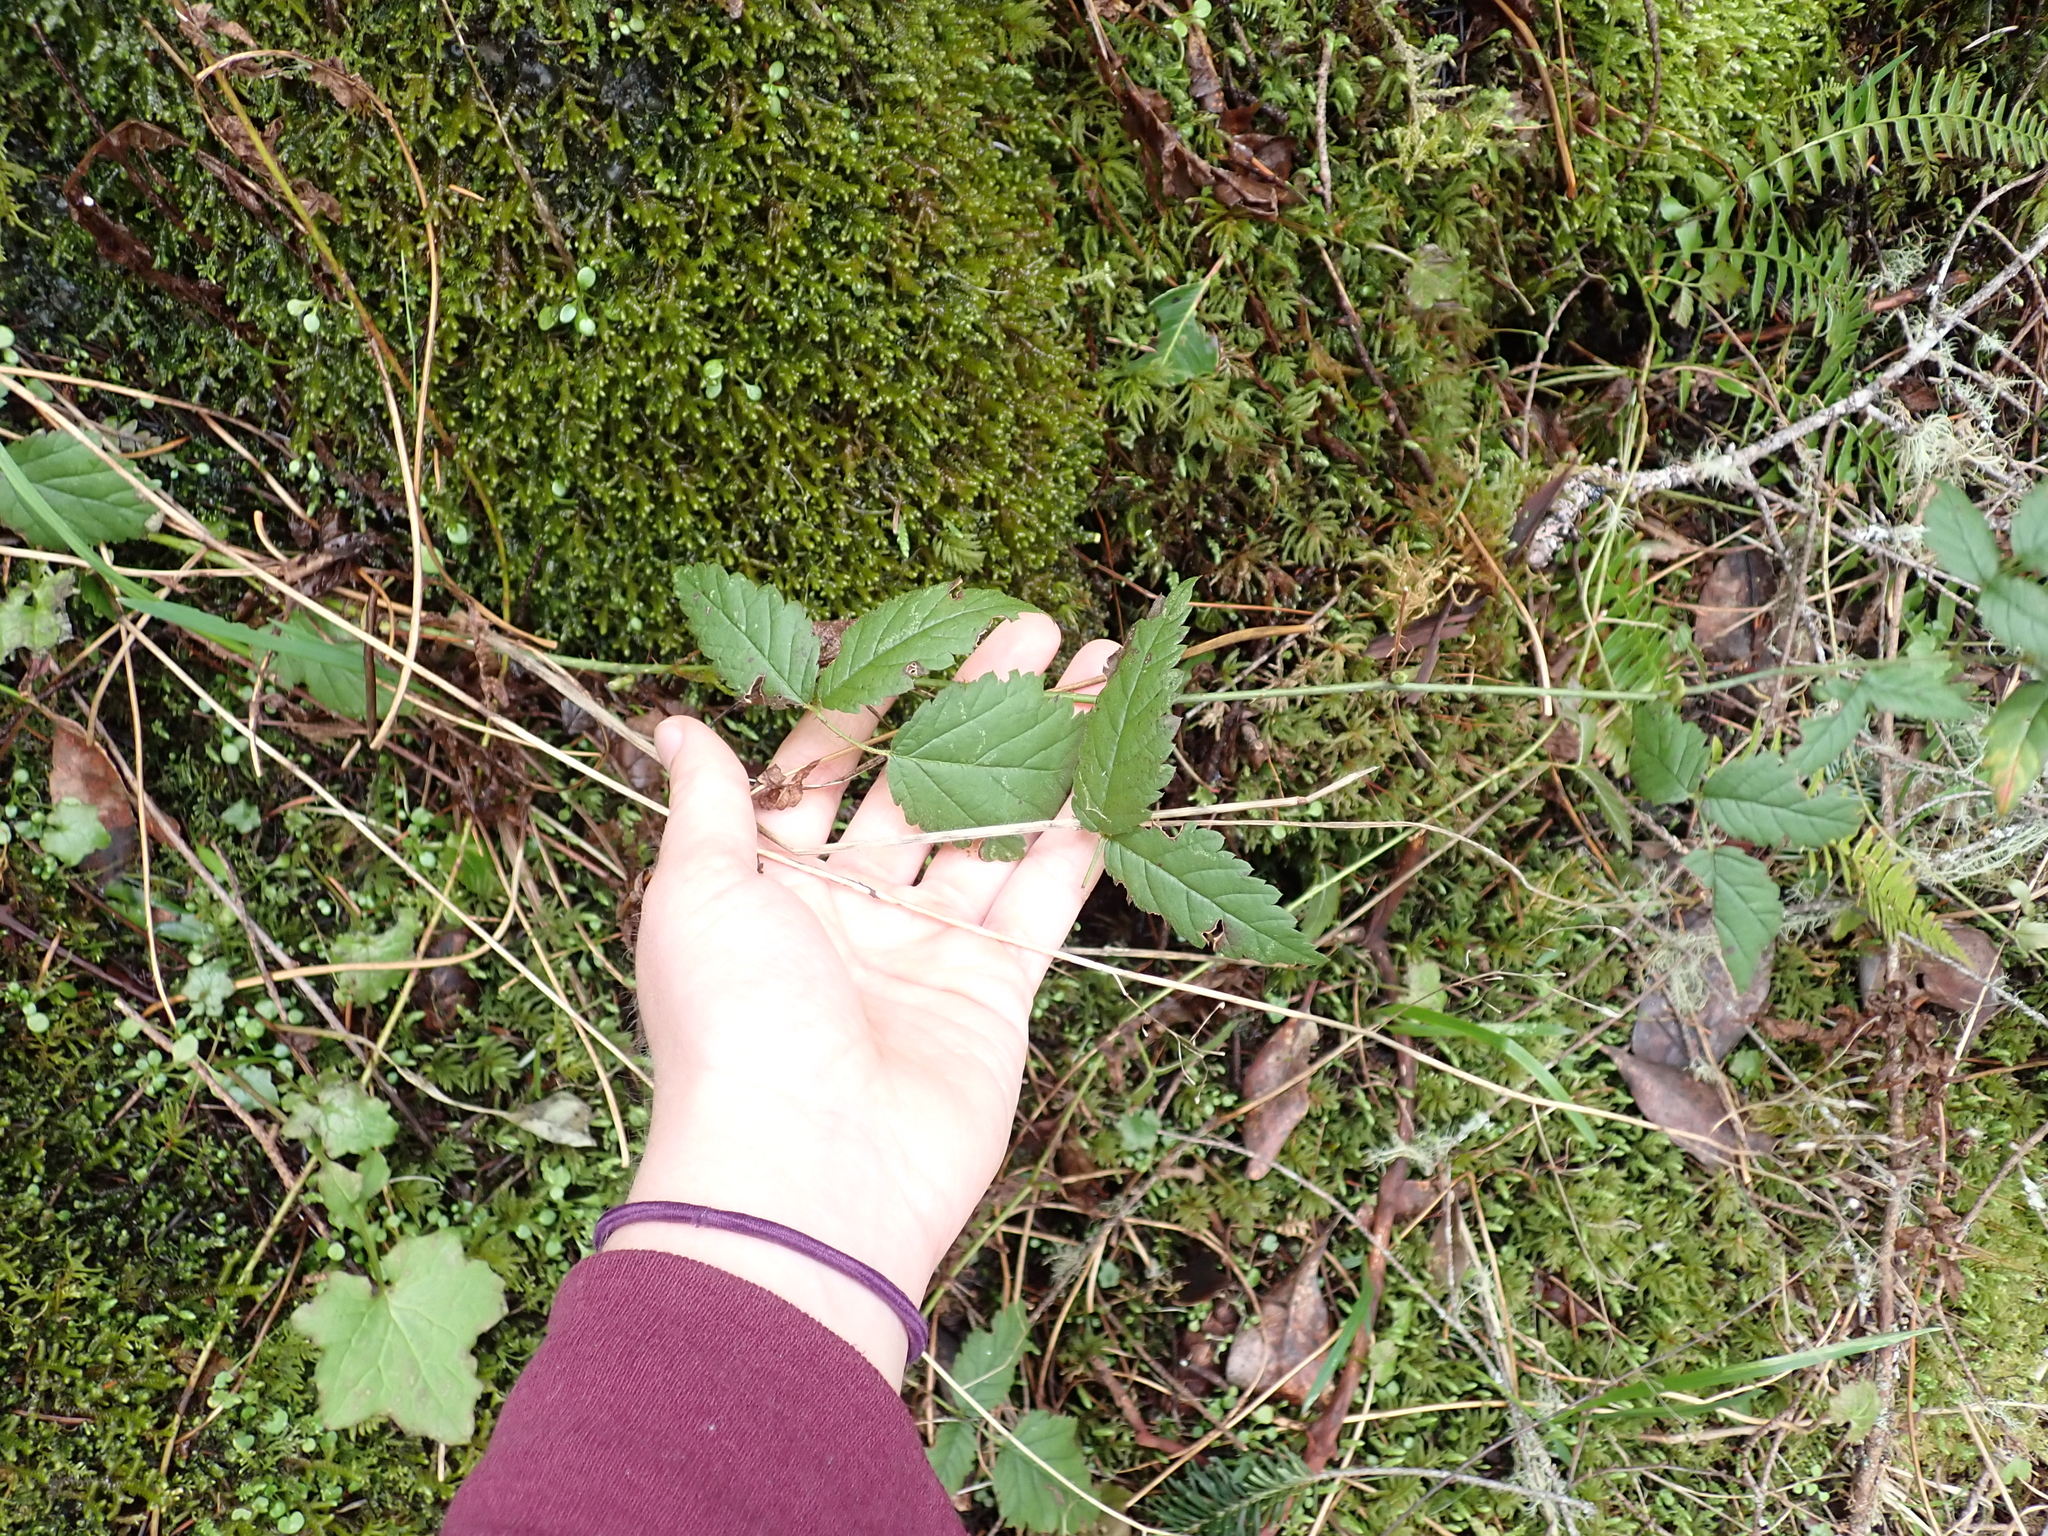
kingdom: Plantae
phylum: Tracheophyta
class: Magnoliopsida
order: Rosales
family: Rosaceae
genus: Rubus
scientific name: Rubus ursinus
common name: Pacific blackberry
